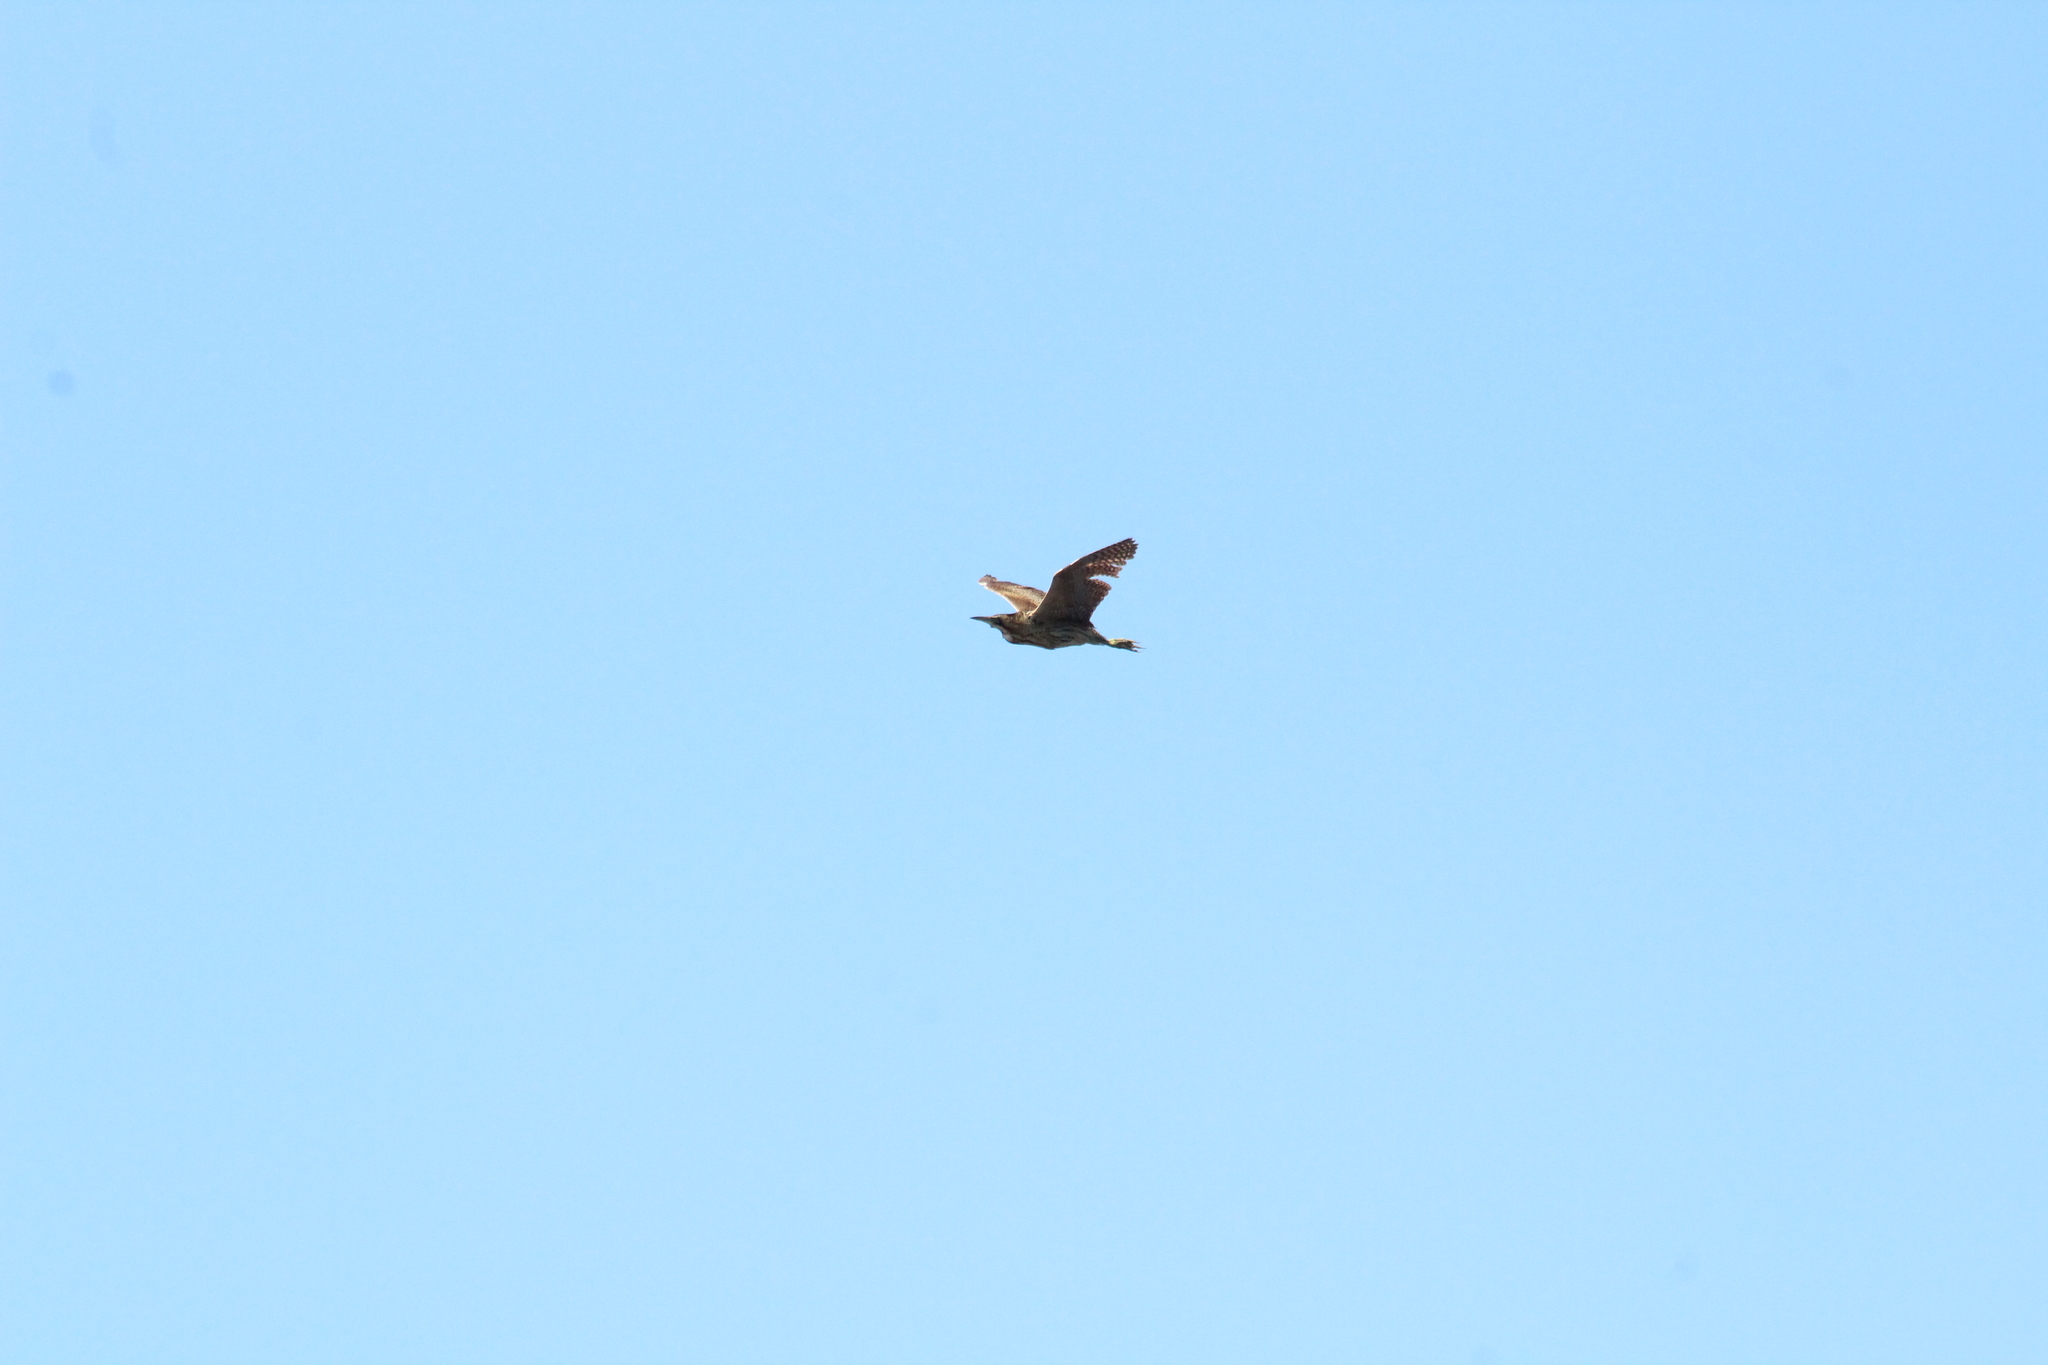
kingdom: Animalia
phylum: Chordata
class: Aves
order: Pelecaniformes
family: Ardeidae
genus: Botaurus
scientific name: Botaurus stellaris
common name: Eurasian bittern
